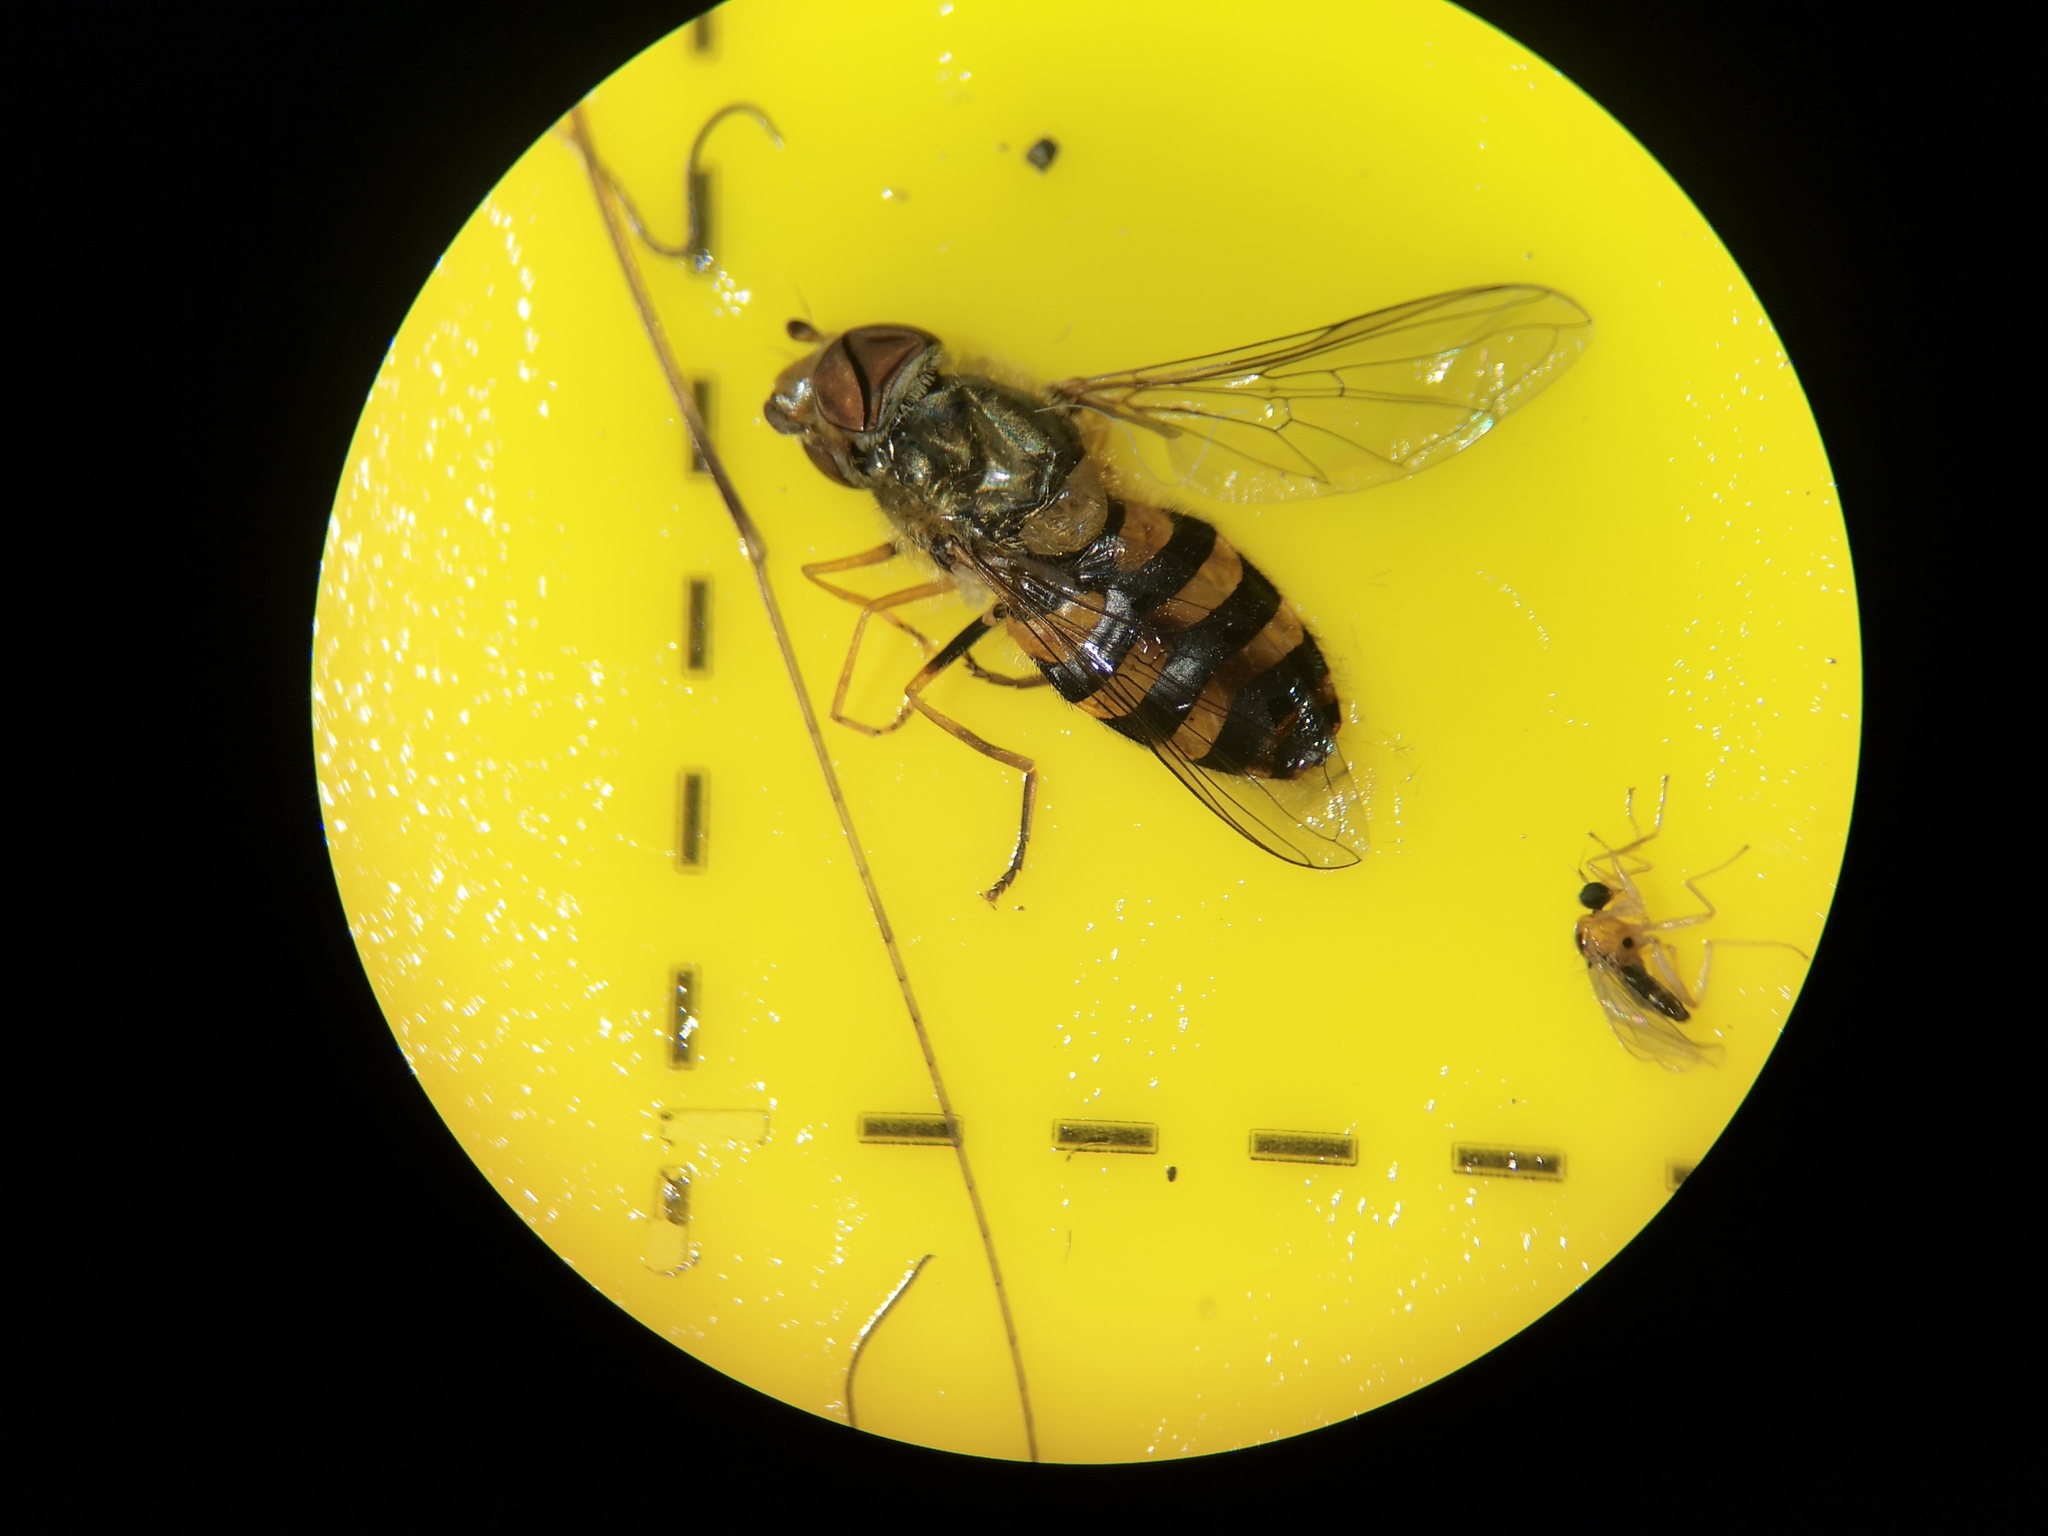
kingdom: Animalia
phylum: Arthropoda
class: Insecta
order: Diptera
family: Syrphidae
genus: Syrphus
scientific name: Syrphus
